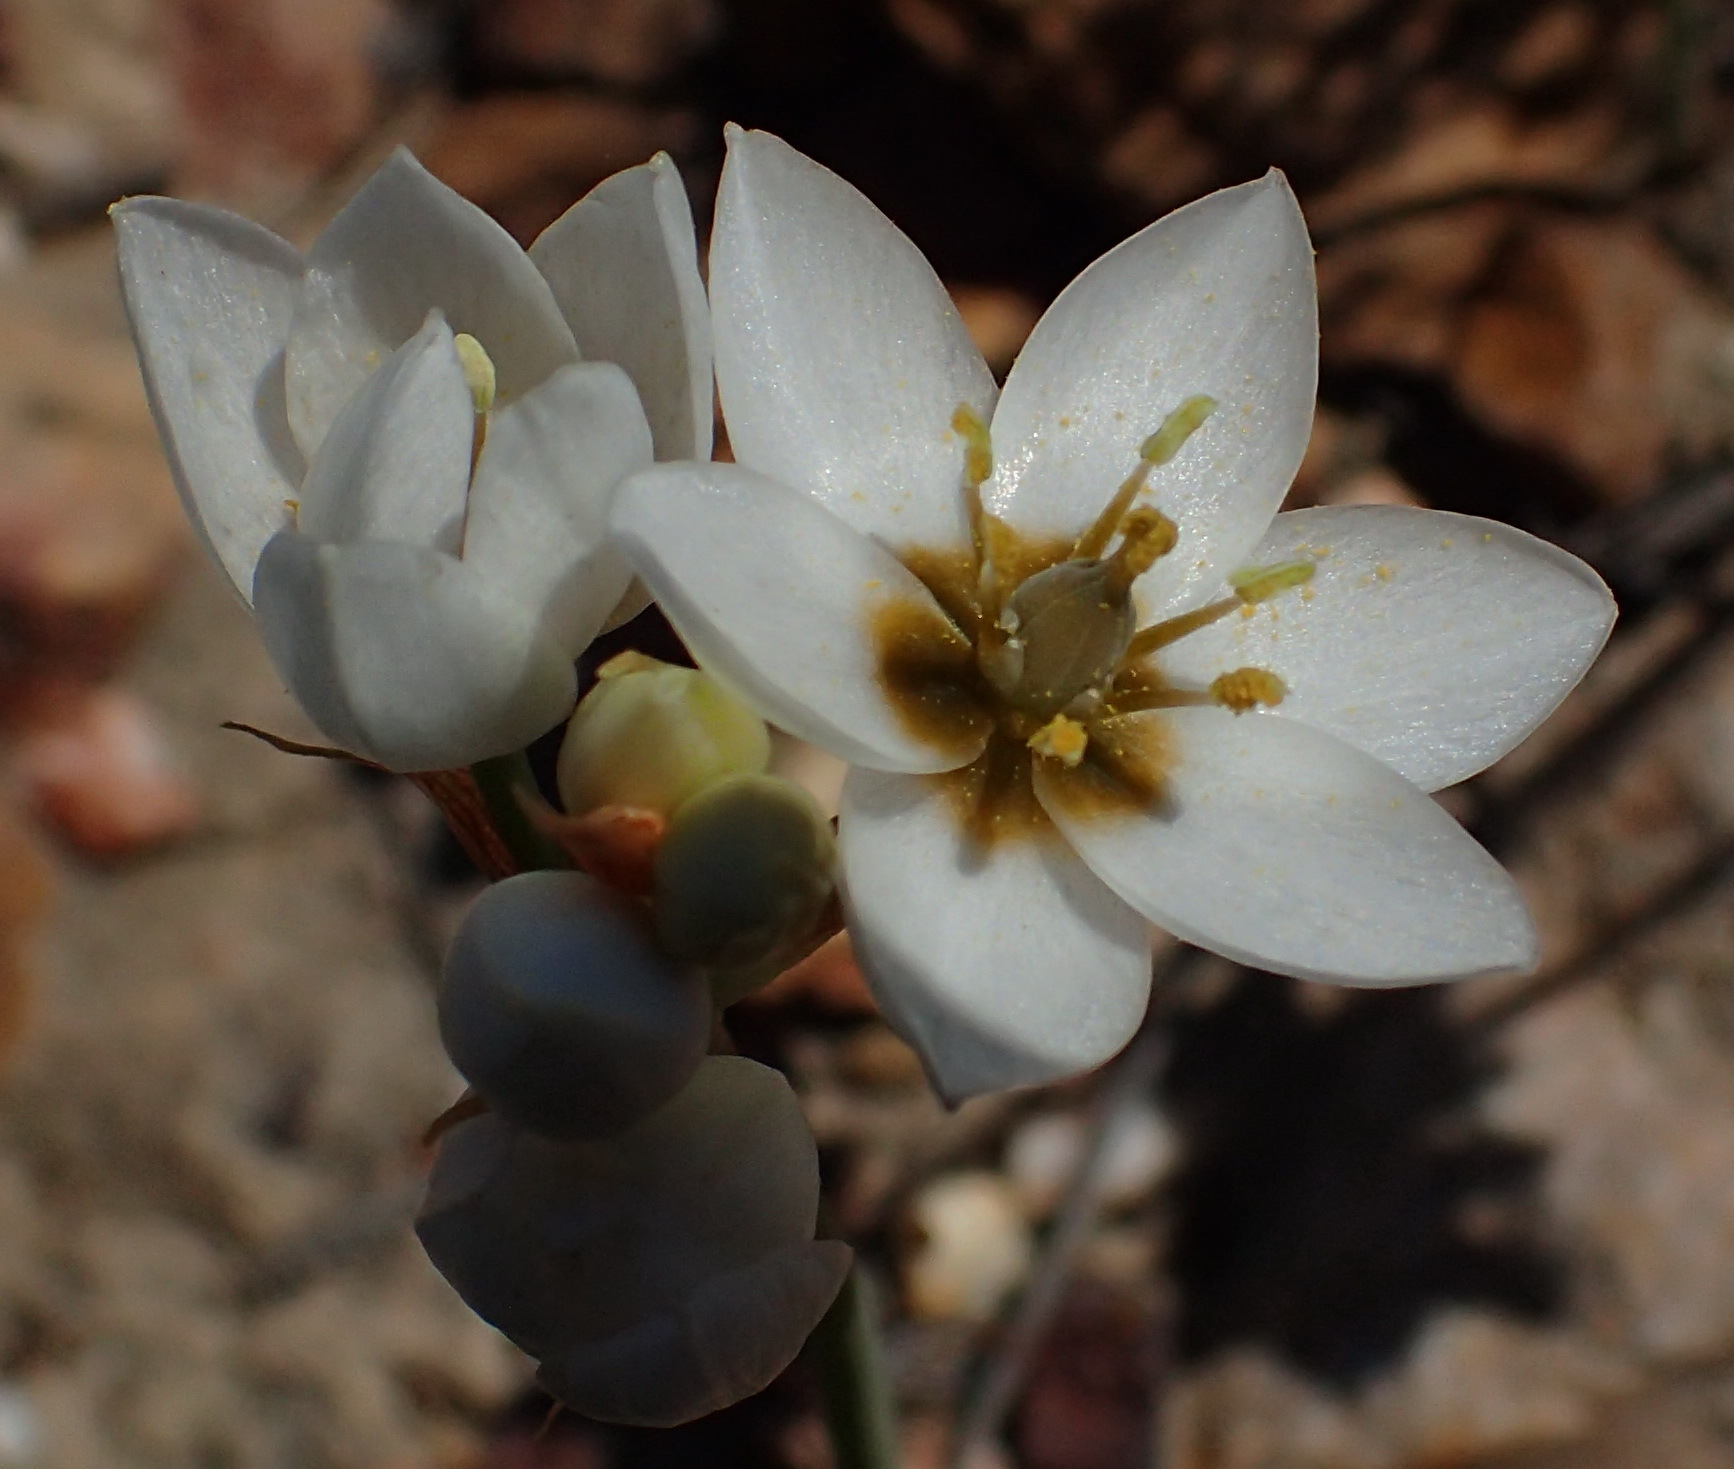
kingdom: Plantae
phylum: Tracheophyta
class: Liliopsida
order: Asparagales
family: Asparagaceae
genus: Ornithogalum
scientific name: Ornithogalum dubium
